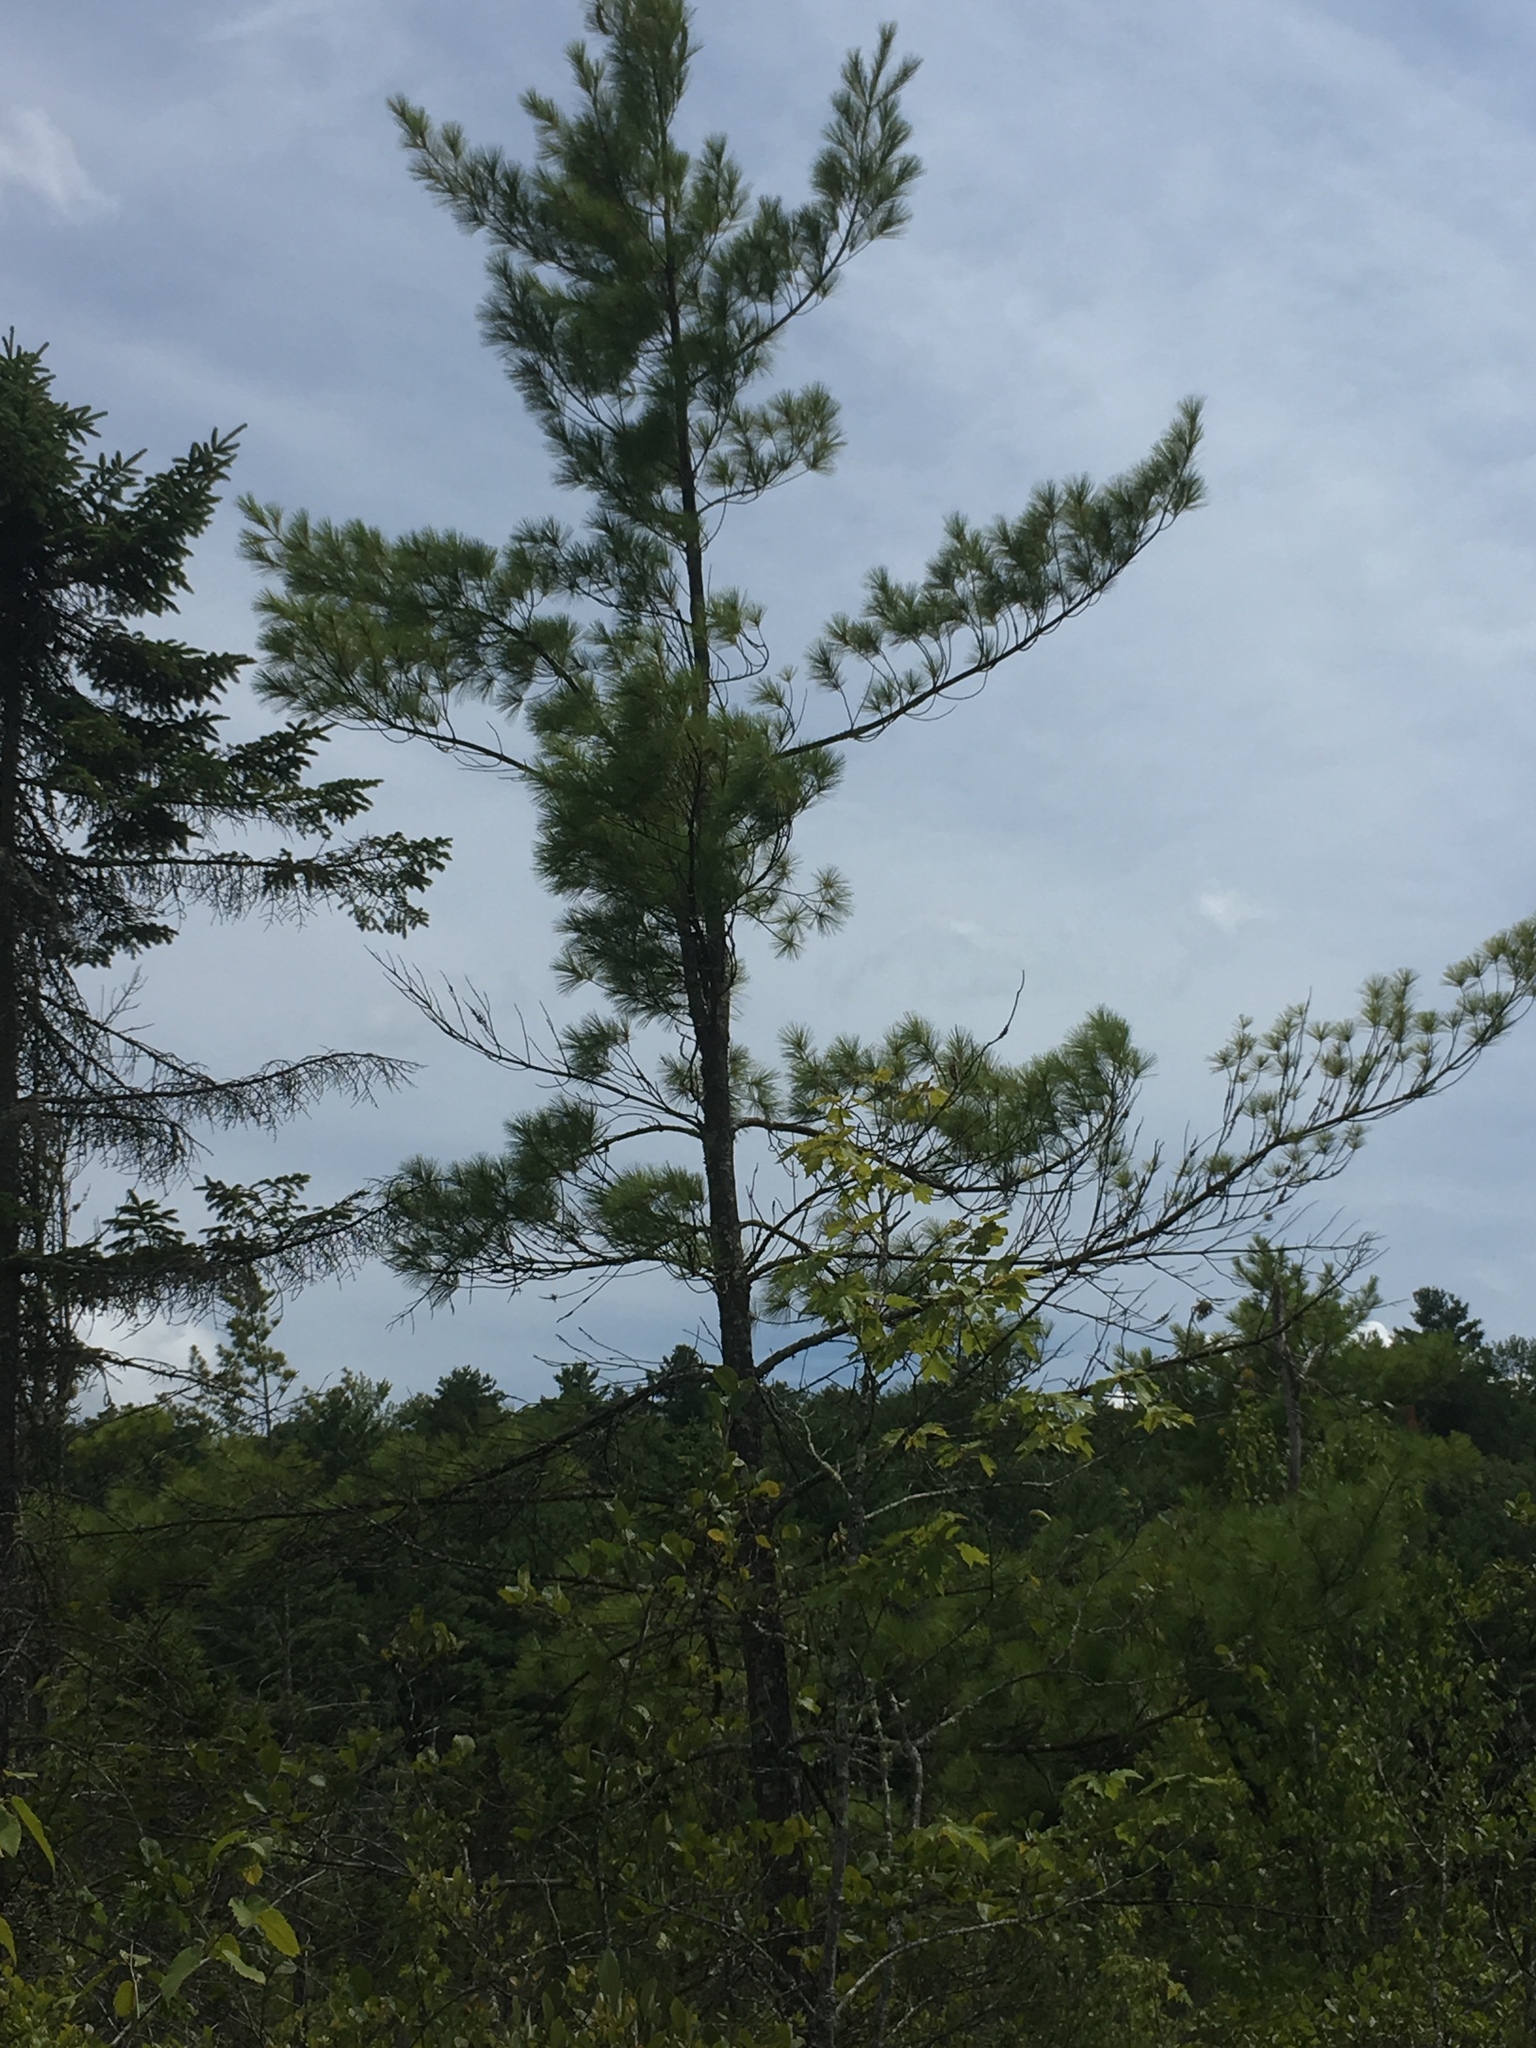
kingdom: Plantae
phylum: Tracheophyta
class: Pinopsida
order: Pinales
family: Pinaceae
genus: Pinus
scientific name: Pinus strobus
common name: Weymouth pine
